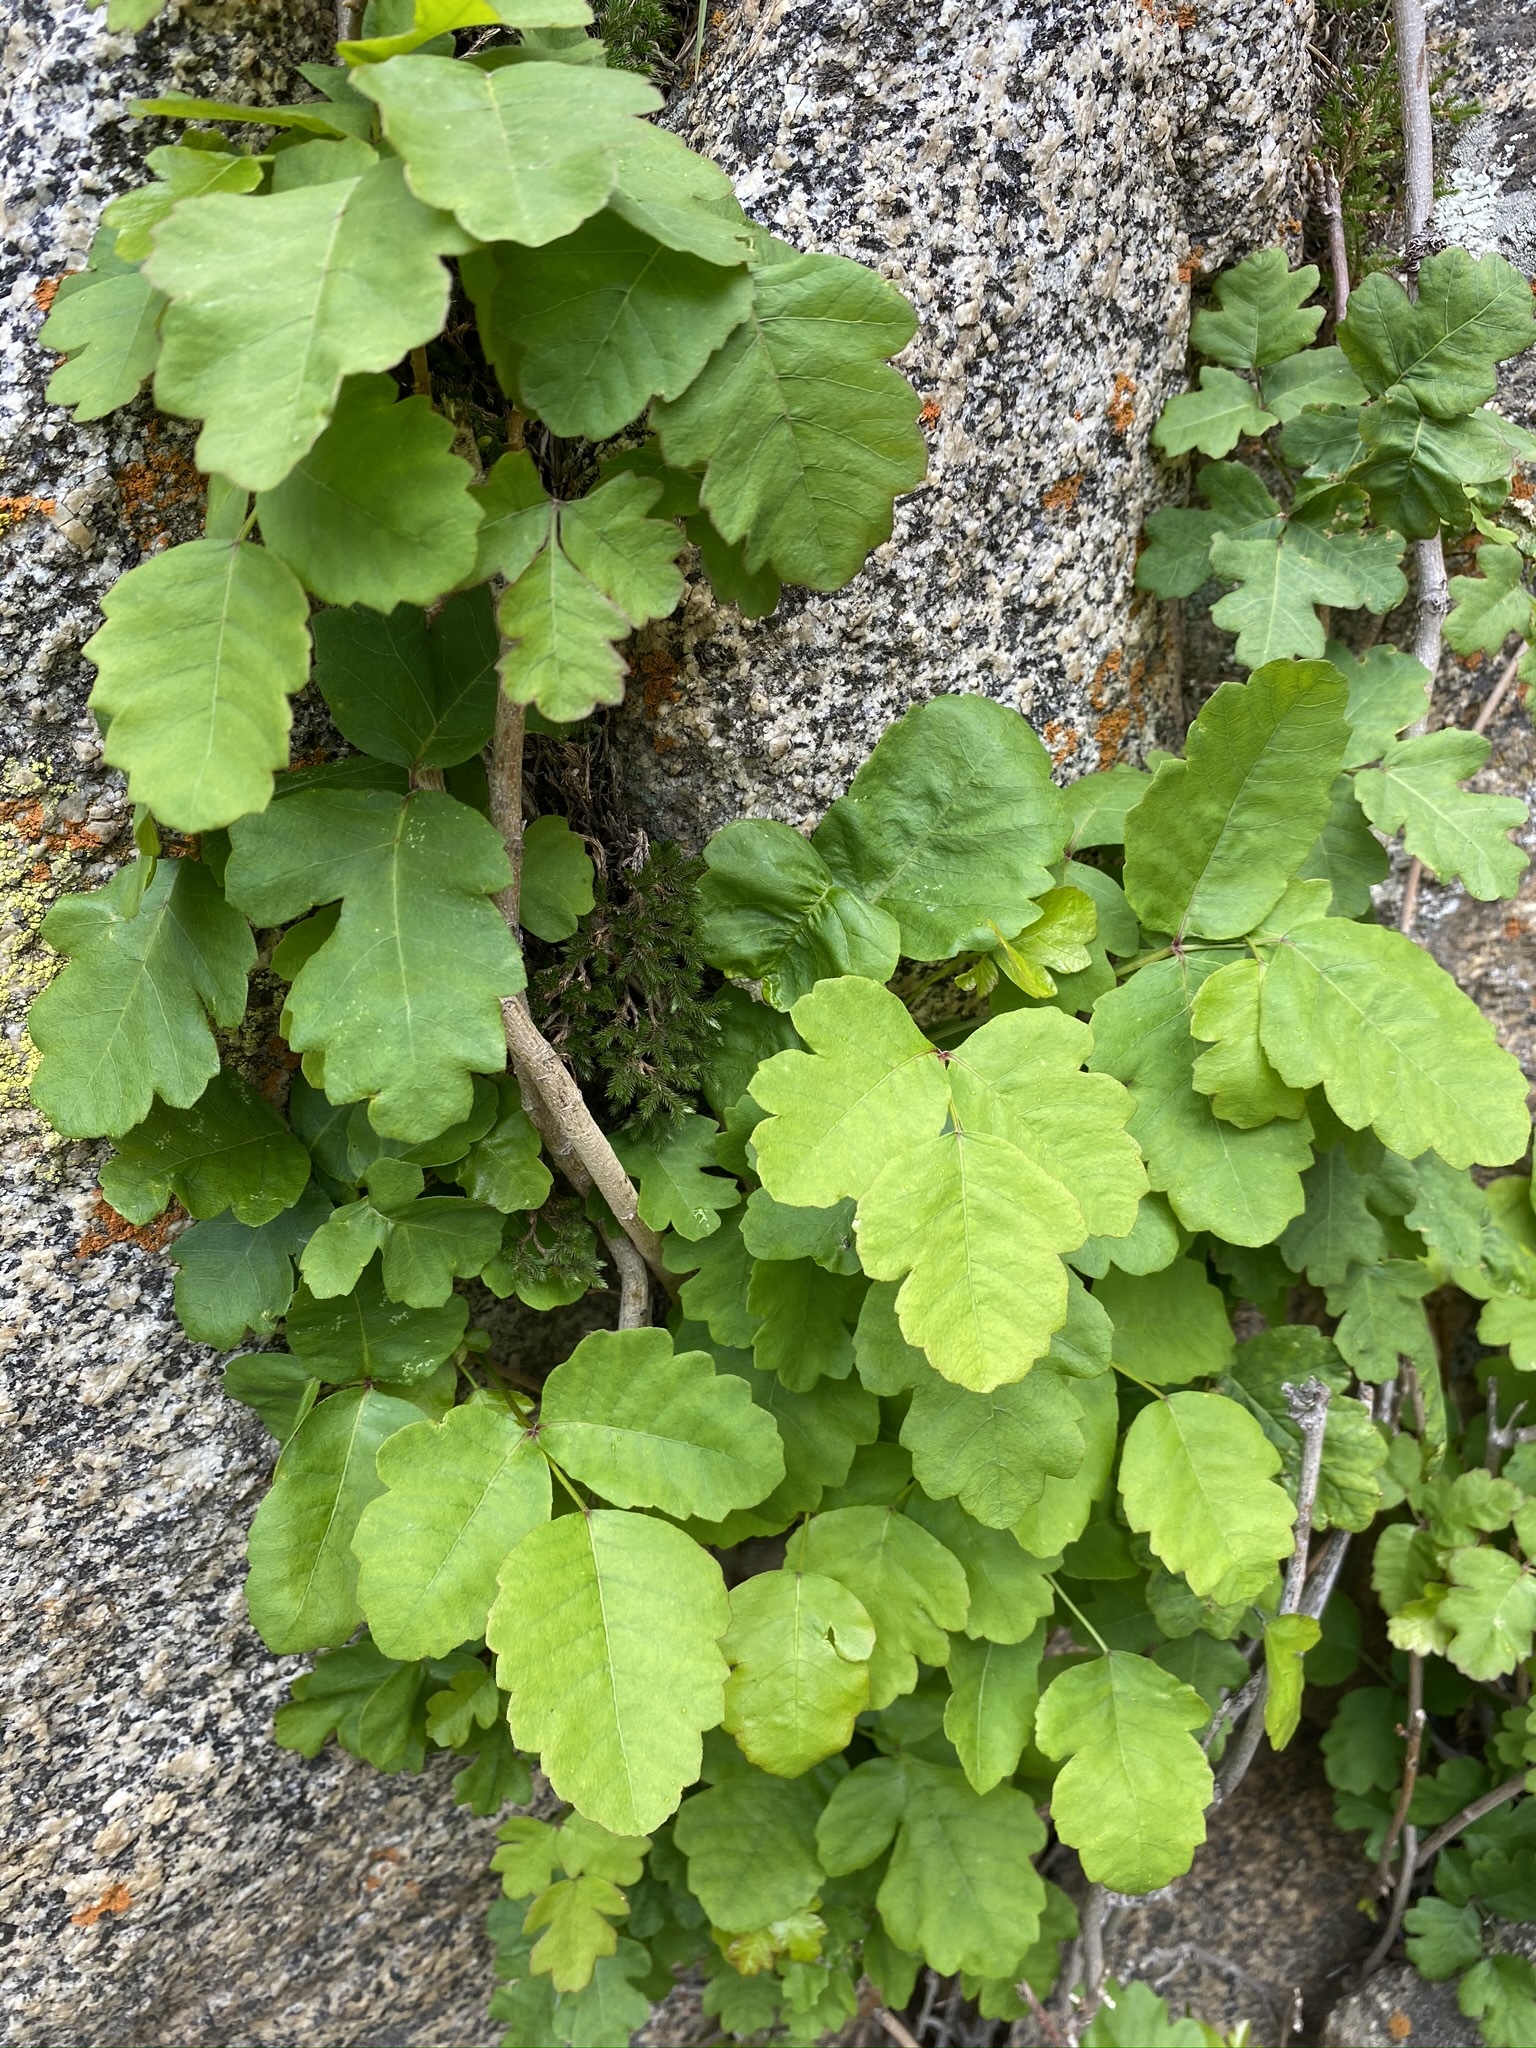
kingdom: Plantae
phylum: Tracheophyta
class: Magnoliopsida
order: Sapindales
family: Anacardiaceae
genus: Toxicodendron
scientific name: Toxicodendron diversilobum
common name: Pacific poison-oak
